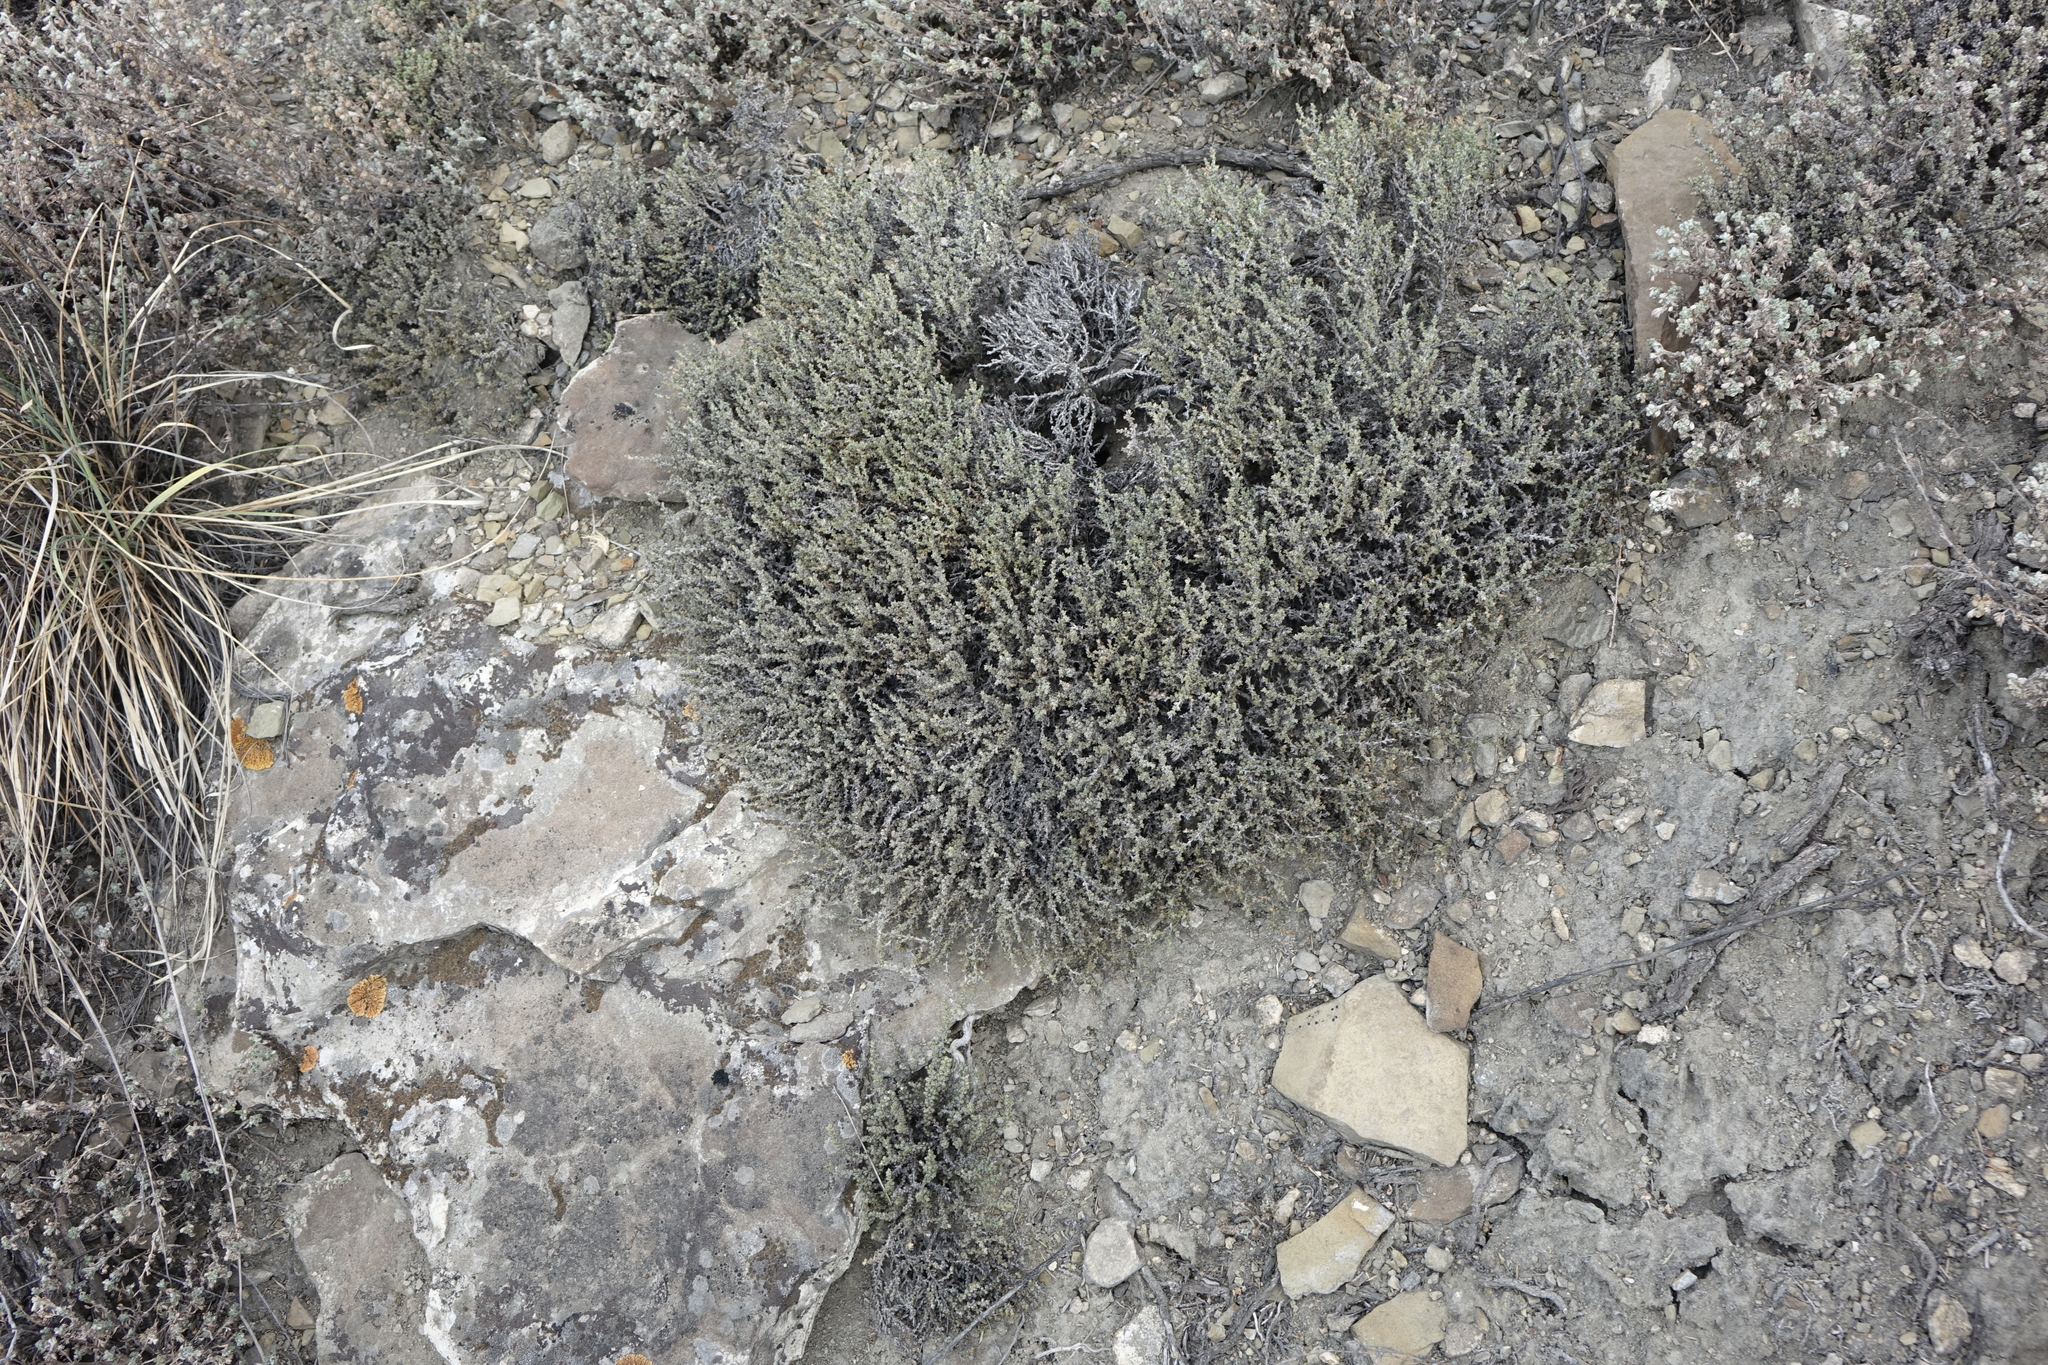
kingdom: Plantae
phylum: Tracheophyta
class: Magnoliopsida
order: Caryophyllales
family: Amaranthaceae
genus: Nanophyton
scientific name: Nanophyton grubovii
